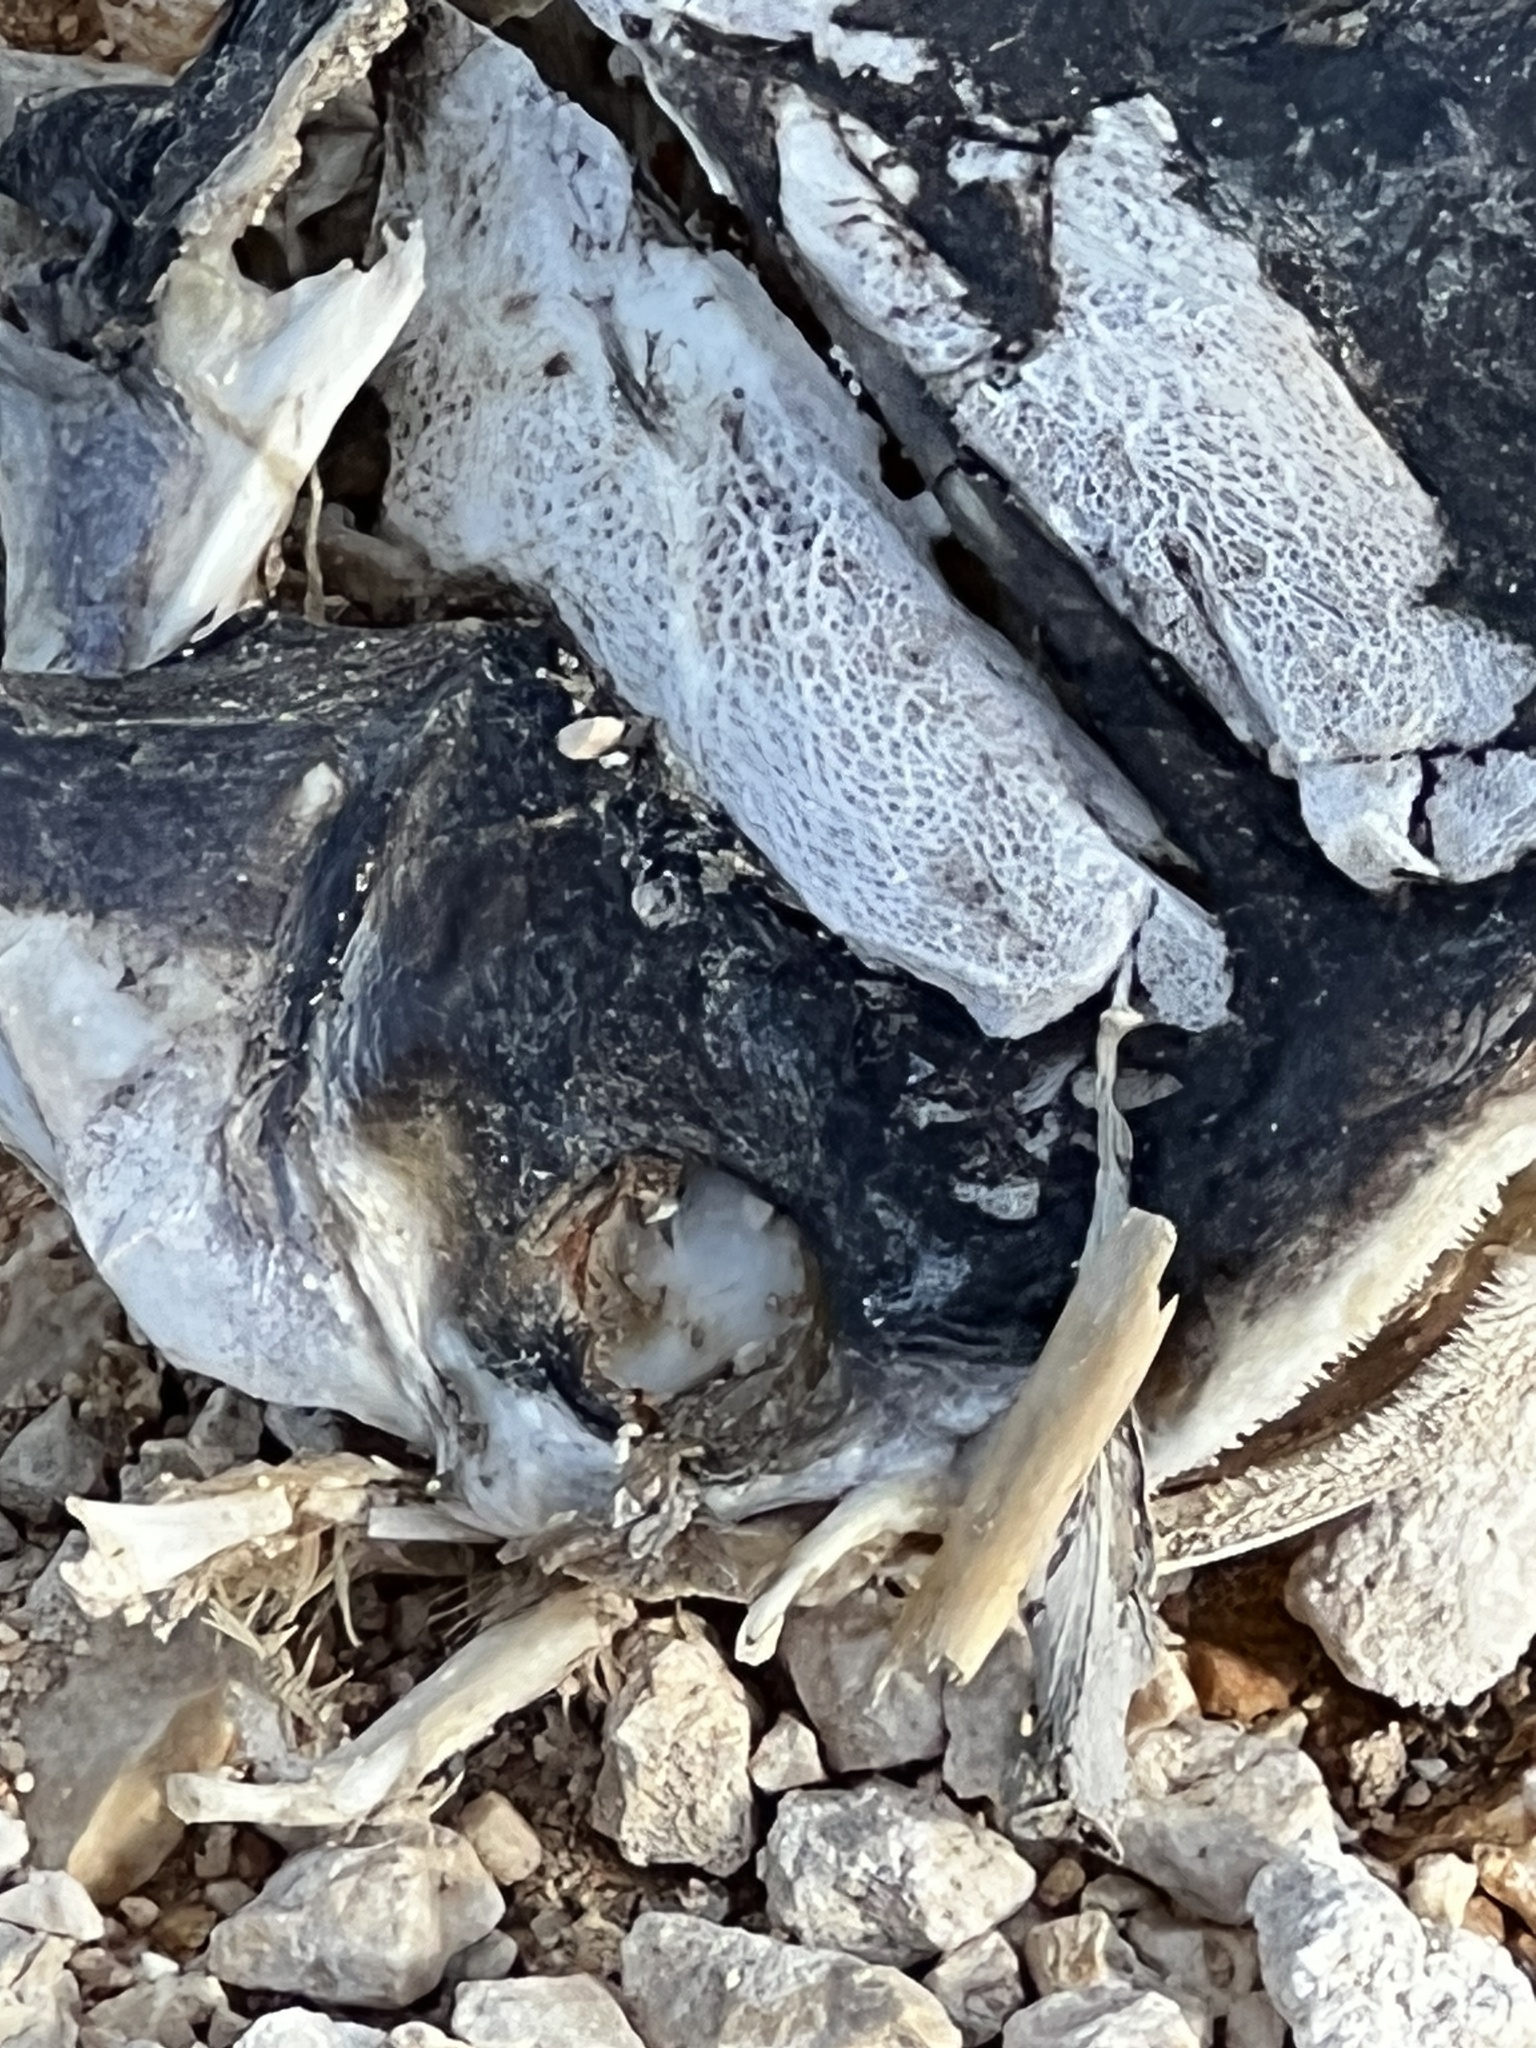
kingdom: Animalia
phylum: Chordata
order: Siluriformes
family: Ariidae
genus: Bagre
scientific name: Bagre marinus
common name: Gafftopsail sea catfish
